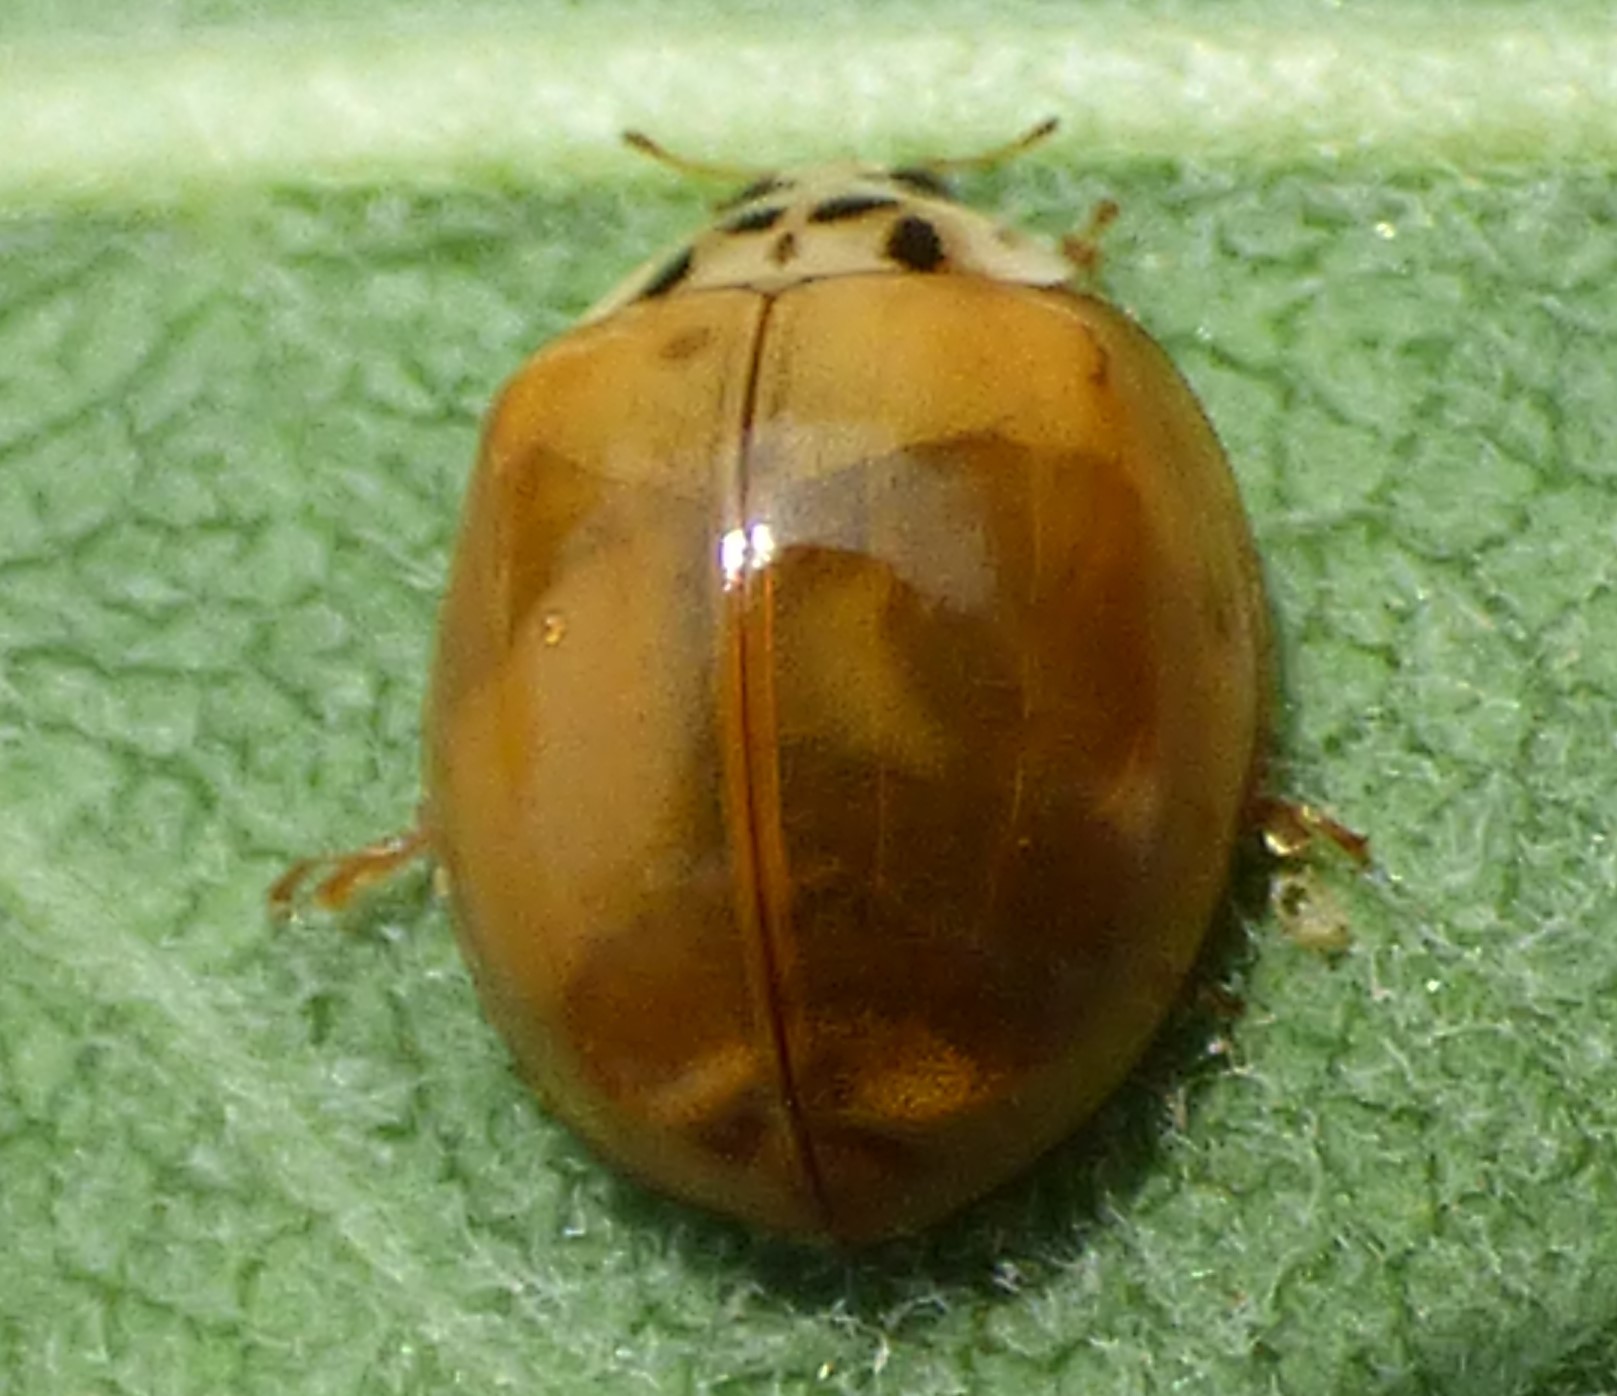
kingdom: Animalia
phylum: Arthropoda
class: Insecta
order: Coleoptera
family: Coccinellidae
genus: Harmonia
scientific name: Harmonia axyridis
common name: Harlequin ladybird
